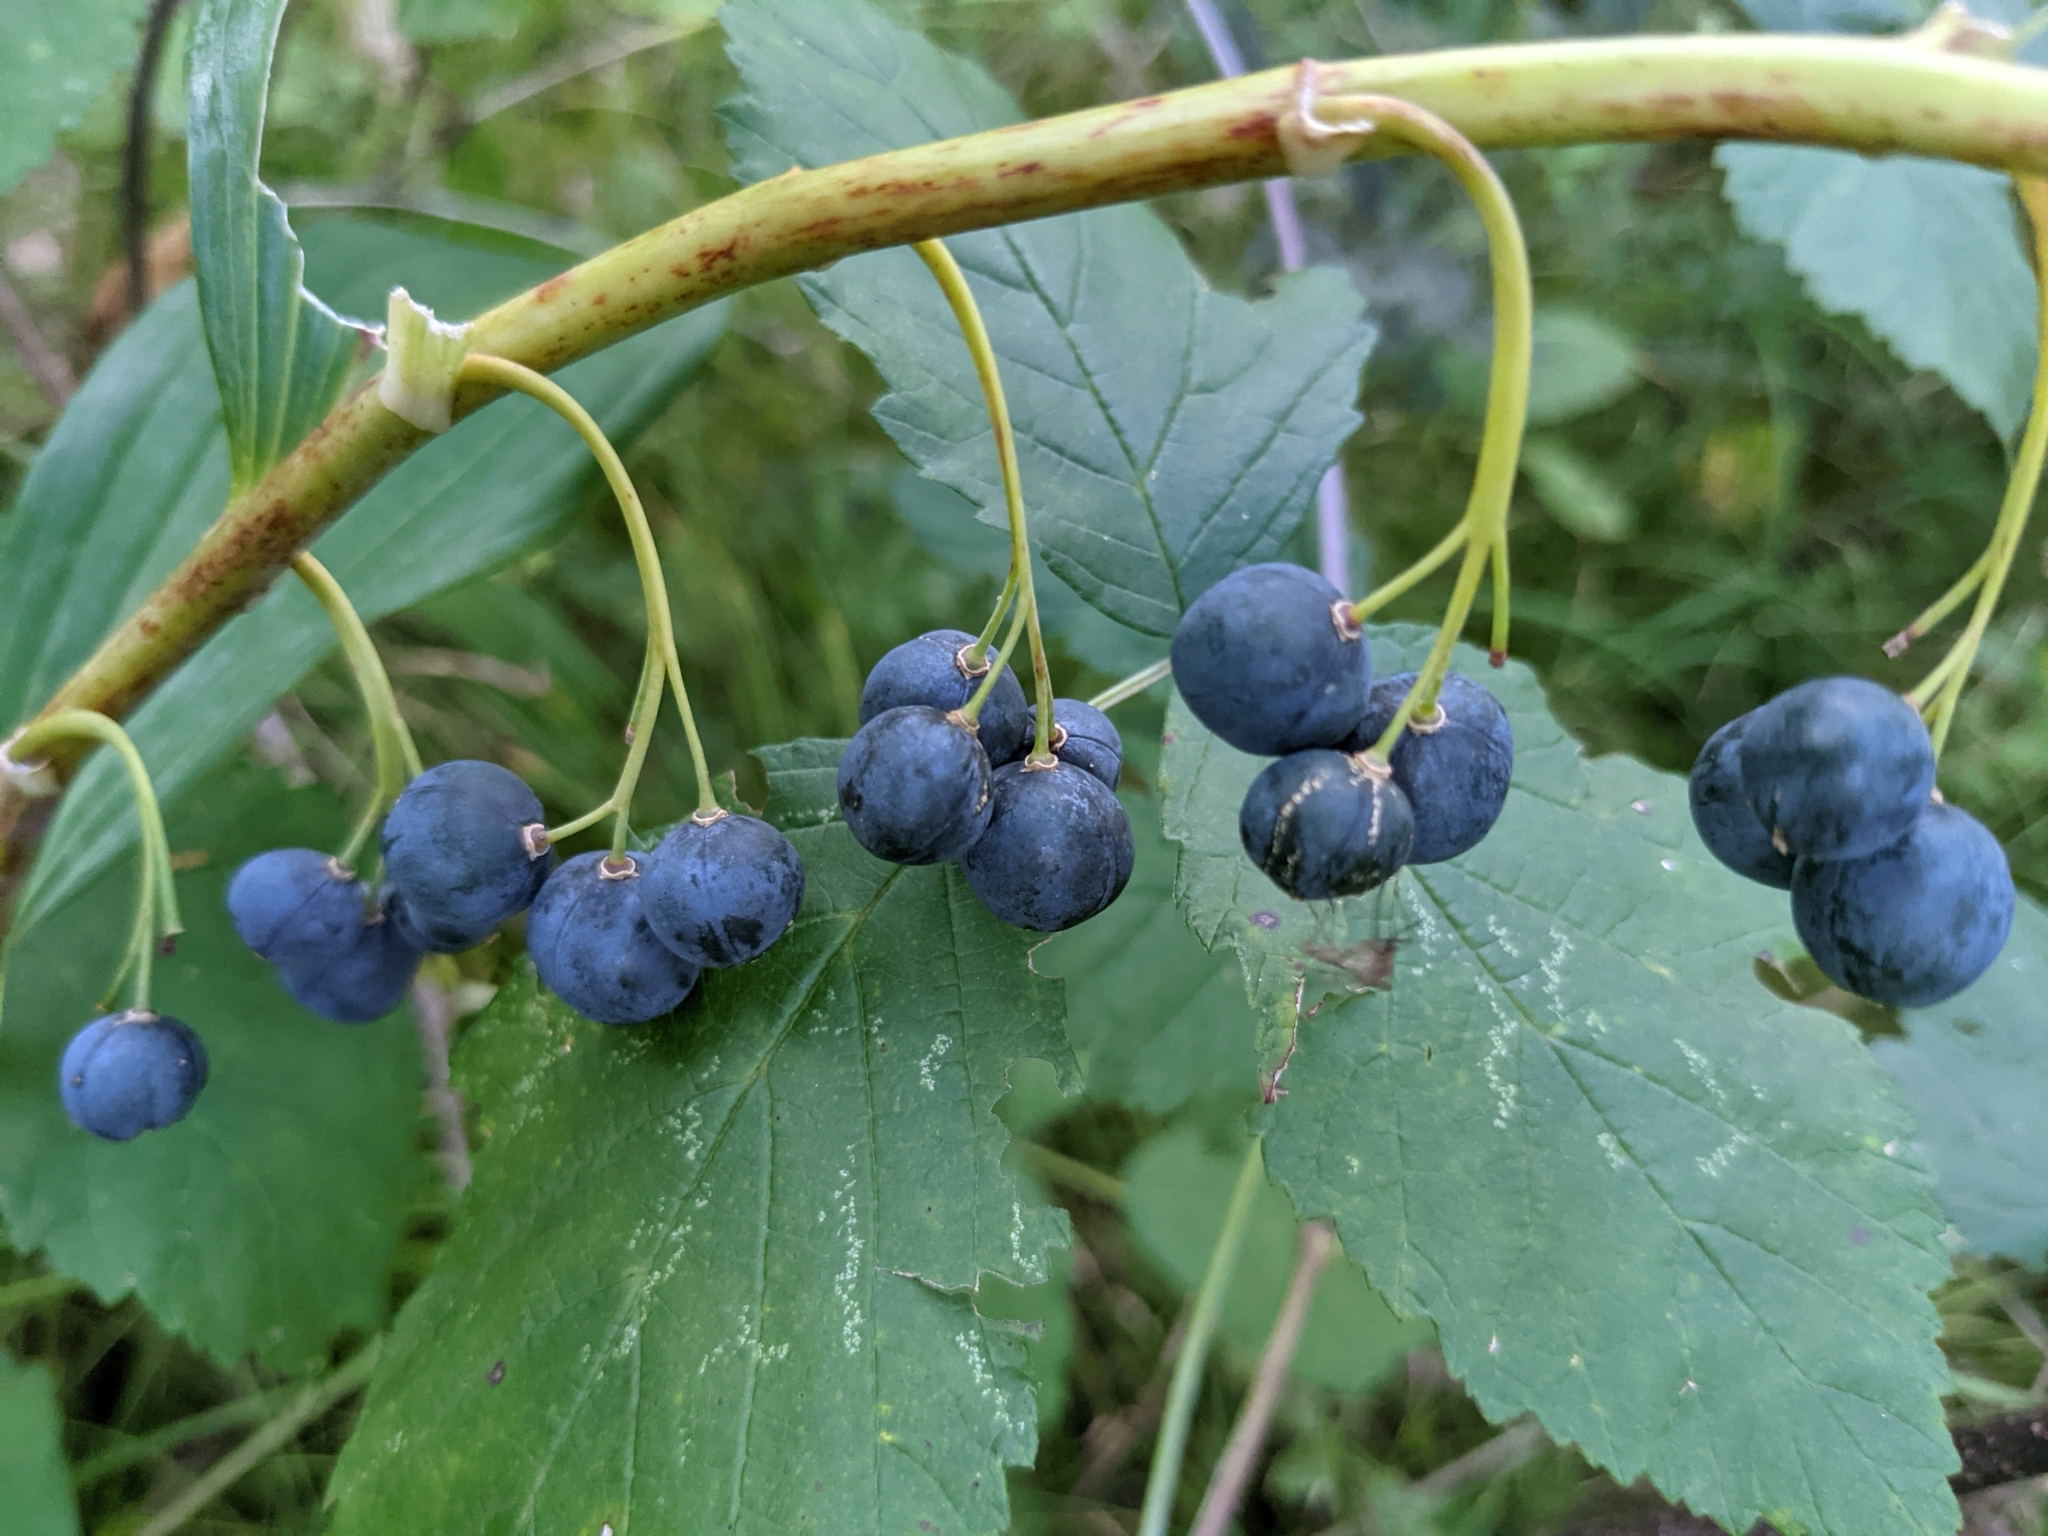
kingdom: Plantae
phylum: Tracheophyta
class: Liliopsida
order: Asparagales
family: Asparagaceae
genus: Polygonatum
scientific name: Polygonatum multiflorum
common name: Solomon's-seal
